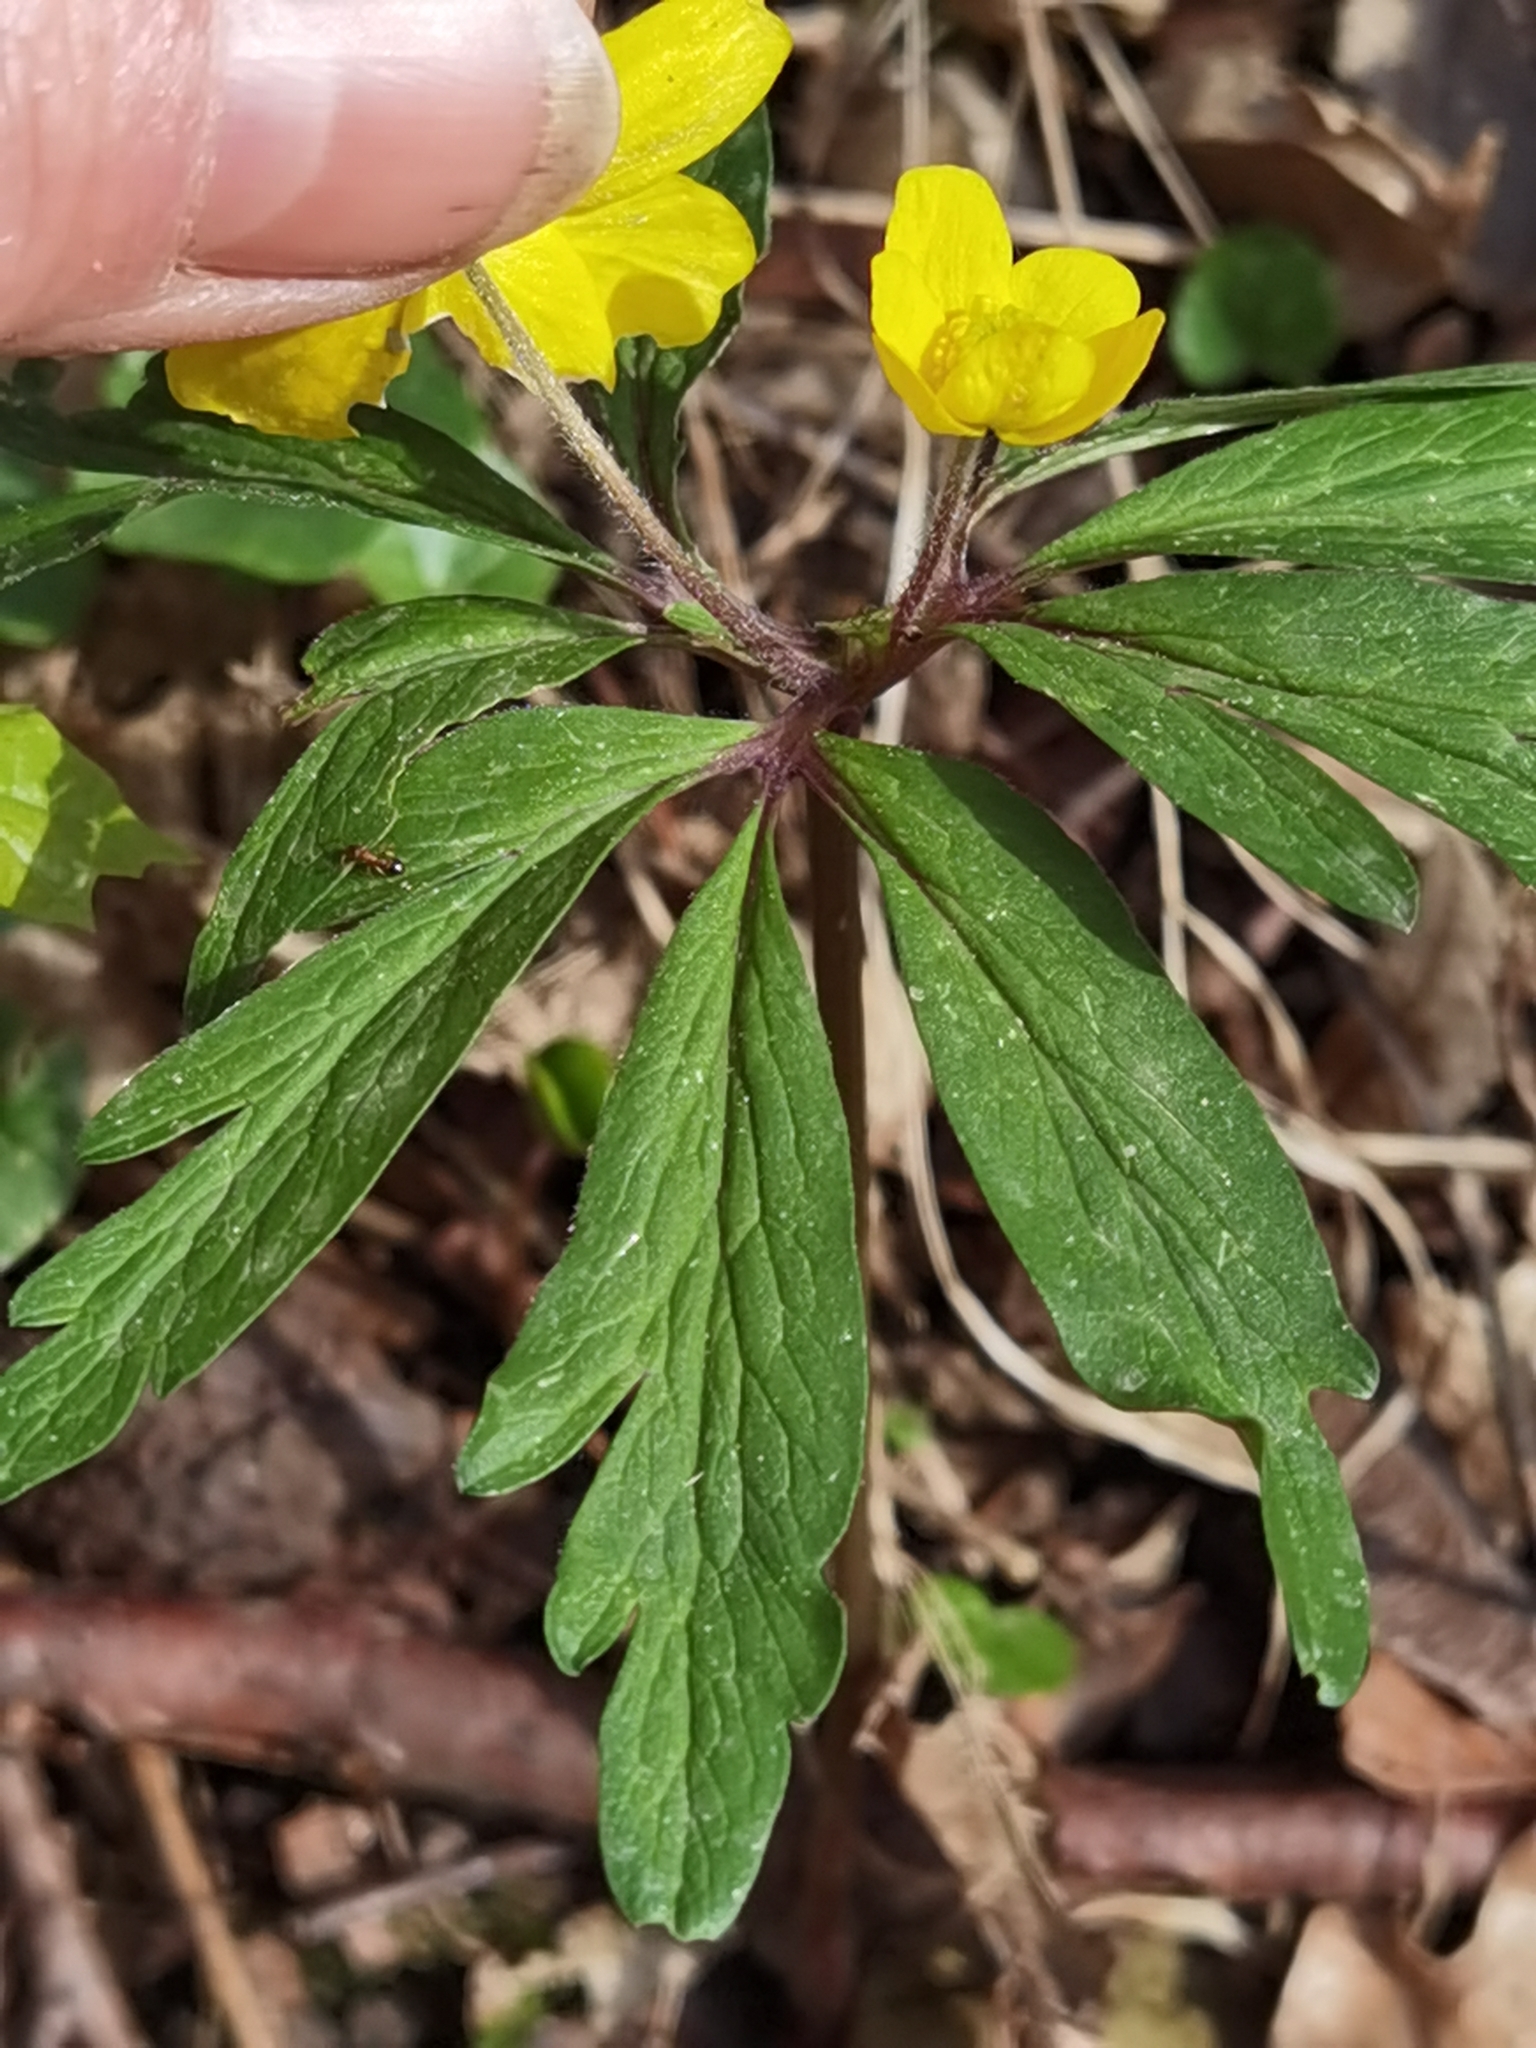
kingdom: Plantae
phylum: Tracheophyta
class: Magnoliopsida
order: Ranunculales
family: Ranunculaceae
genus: Anemone
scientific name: Anemone ranunculoides
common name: Yellow anemone
